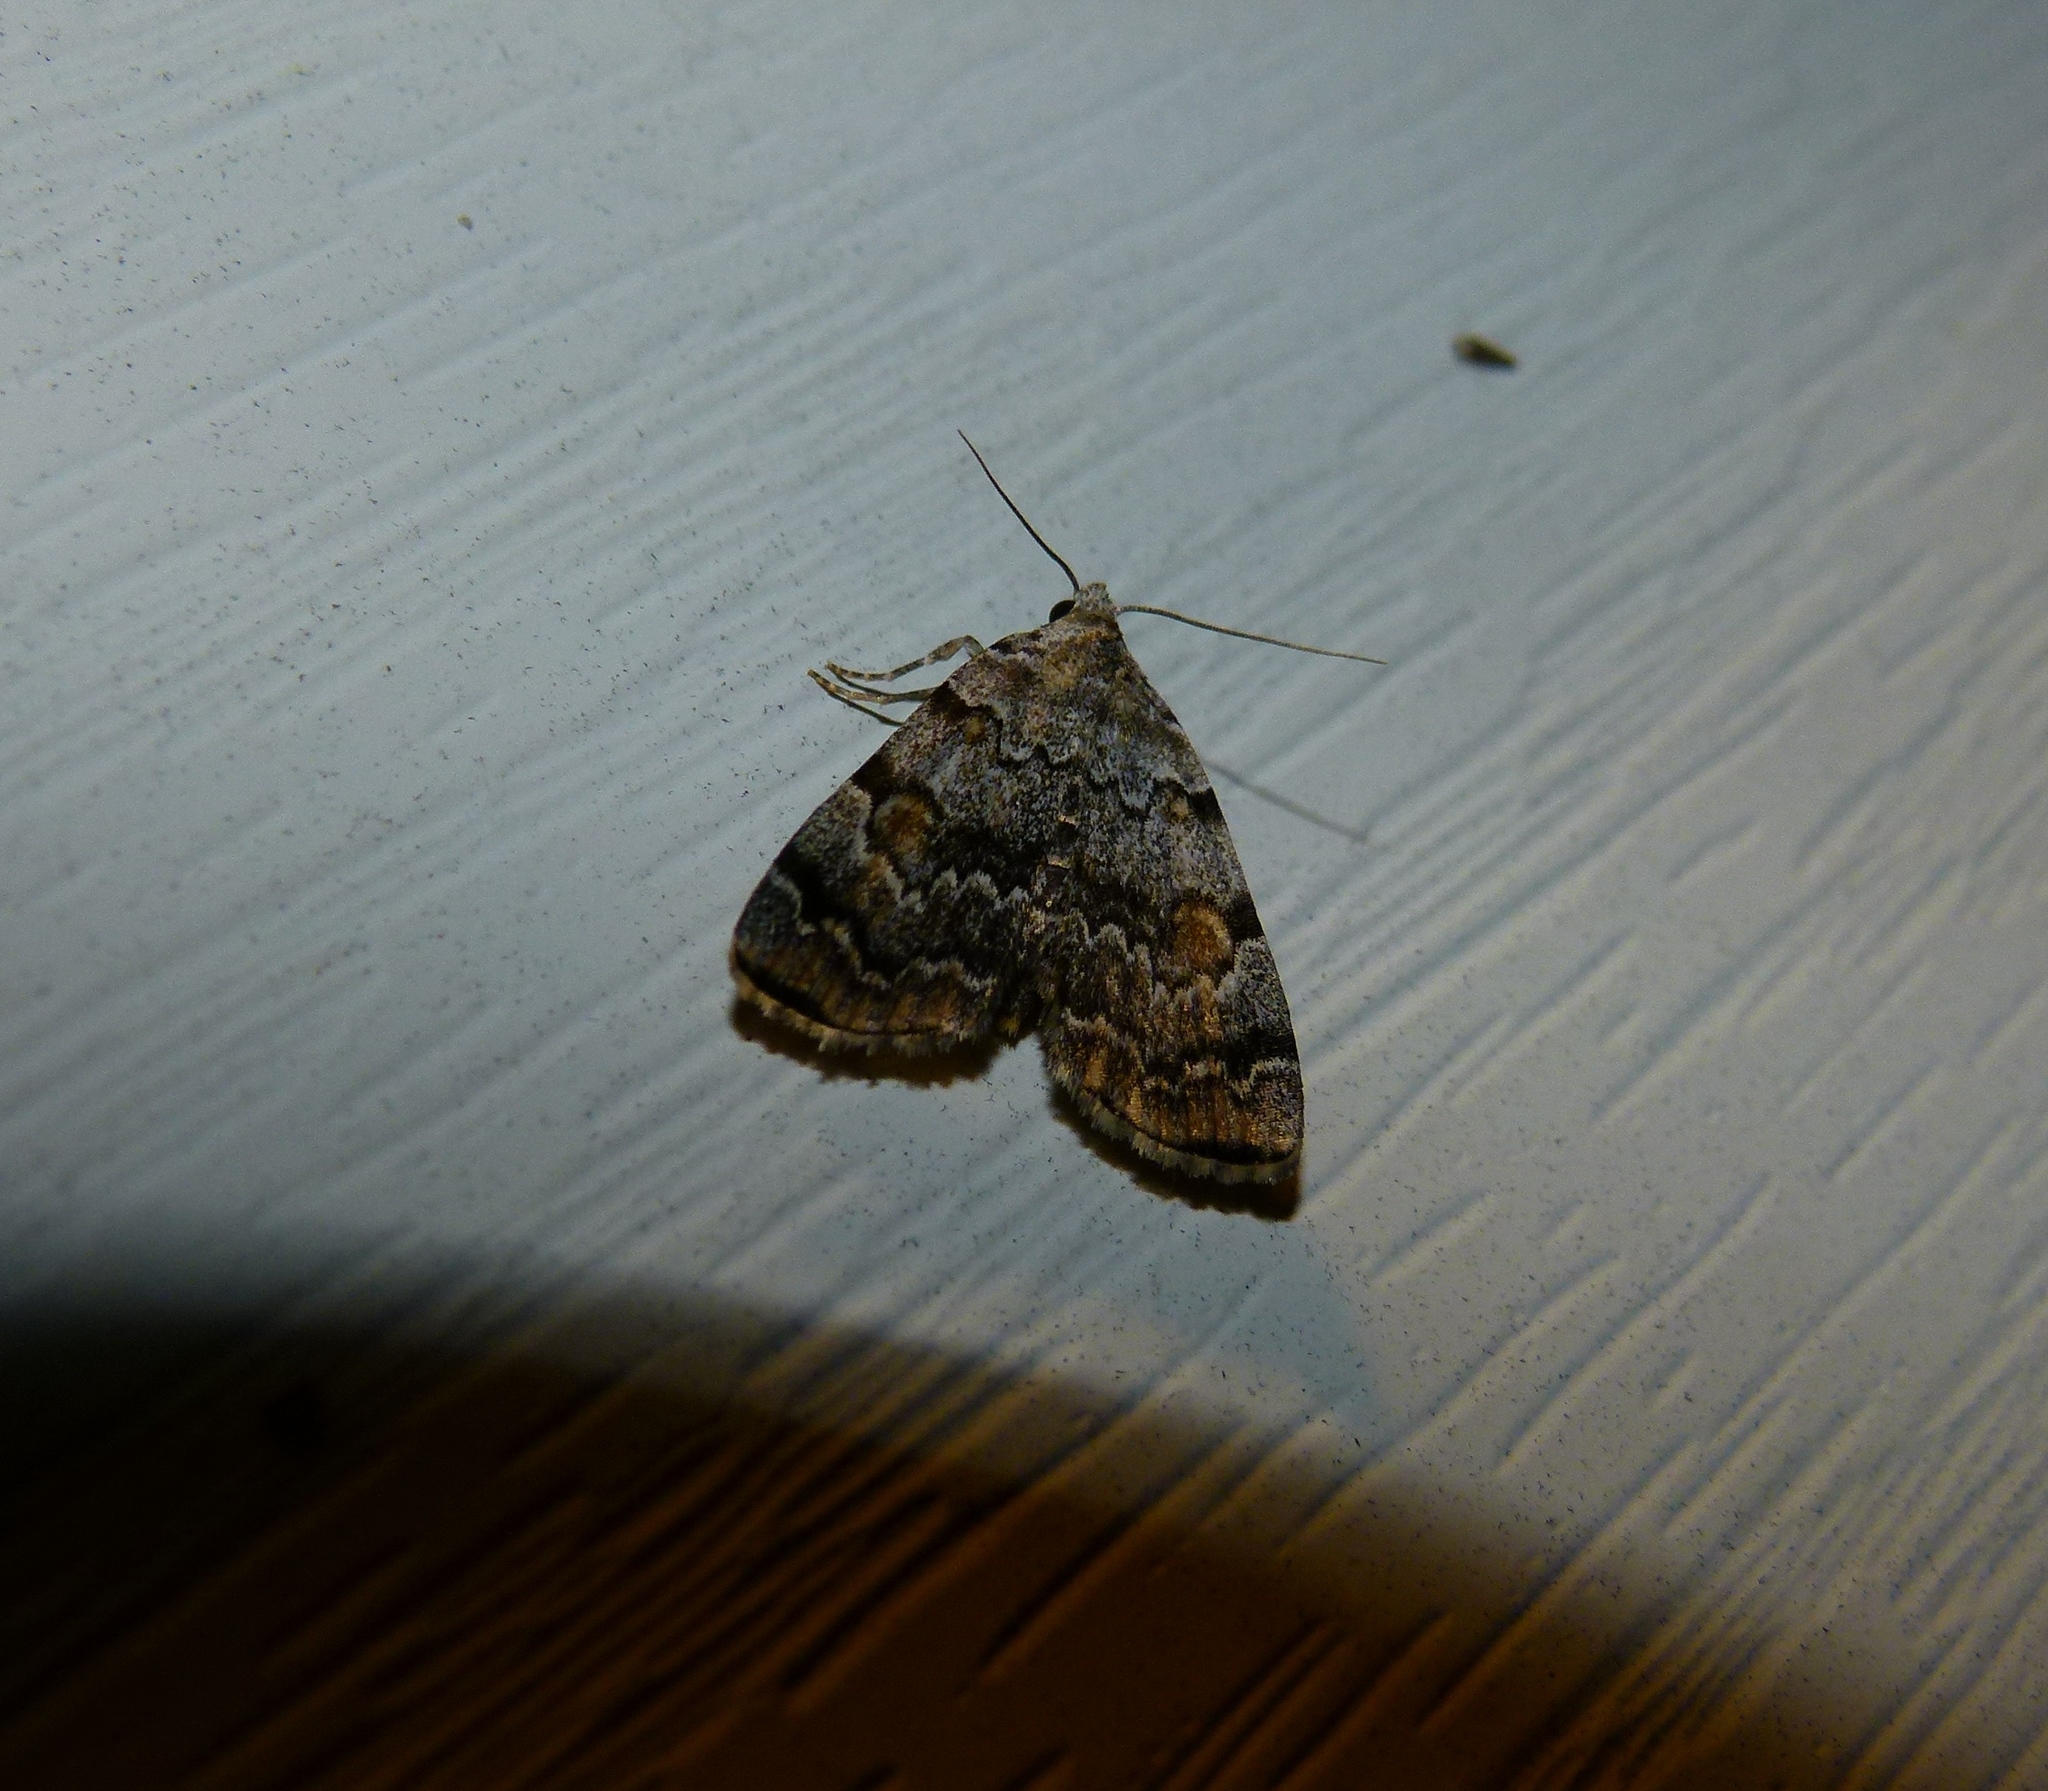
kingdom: Animalia
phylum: Arthropoda
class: Insecta
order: Lepidoptera
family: Erebidae
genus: Idia
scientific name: Idia americalis
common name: American idia moth
